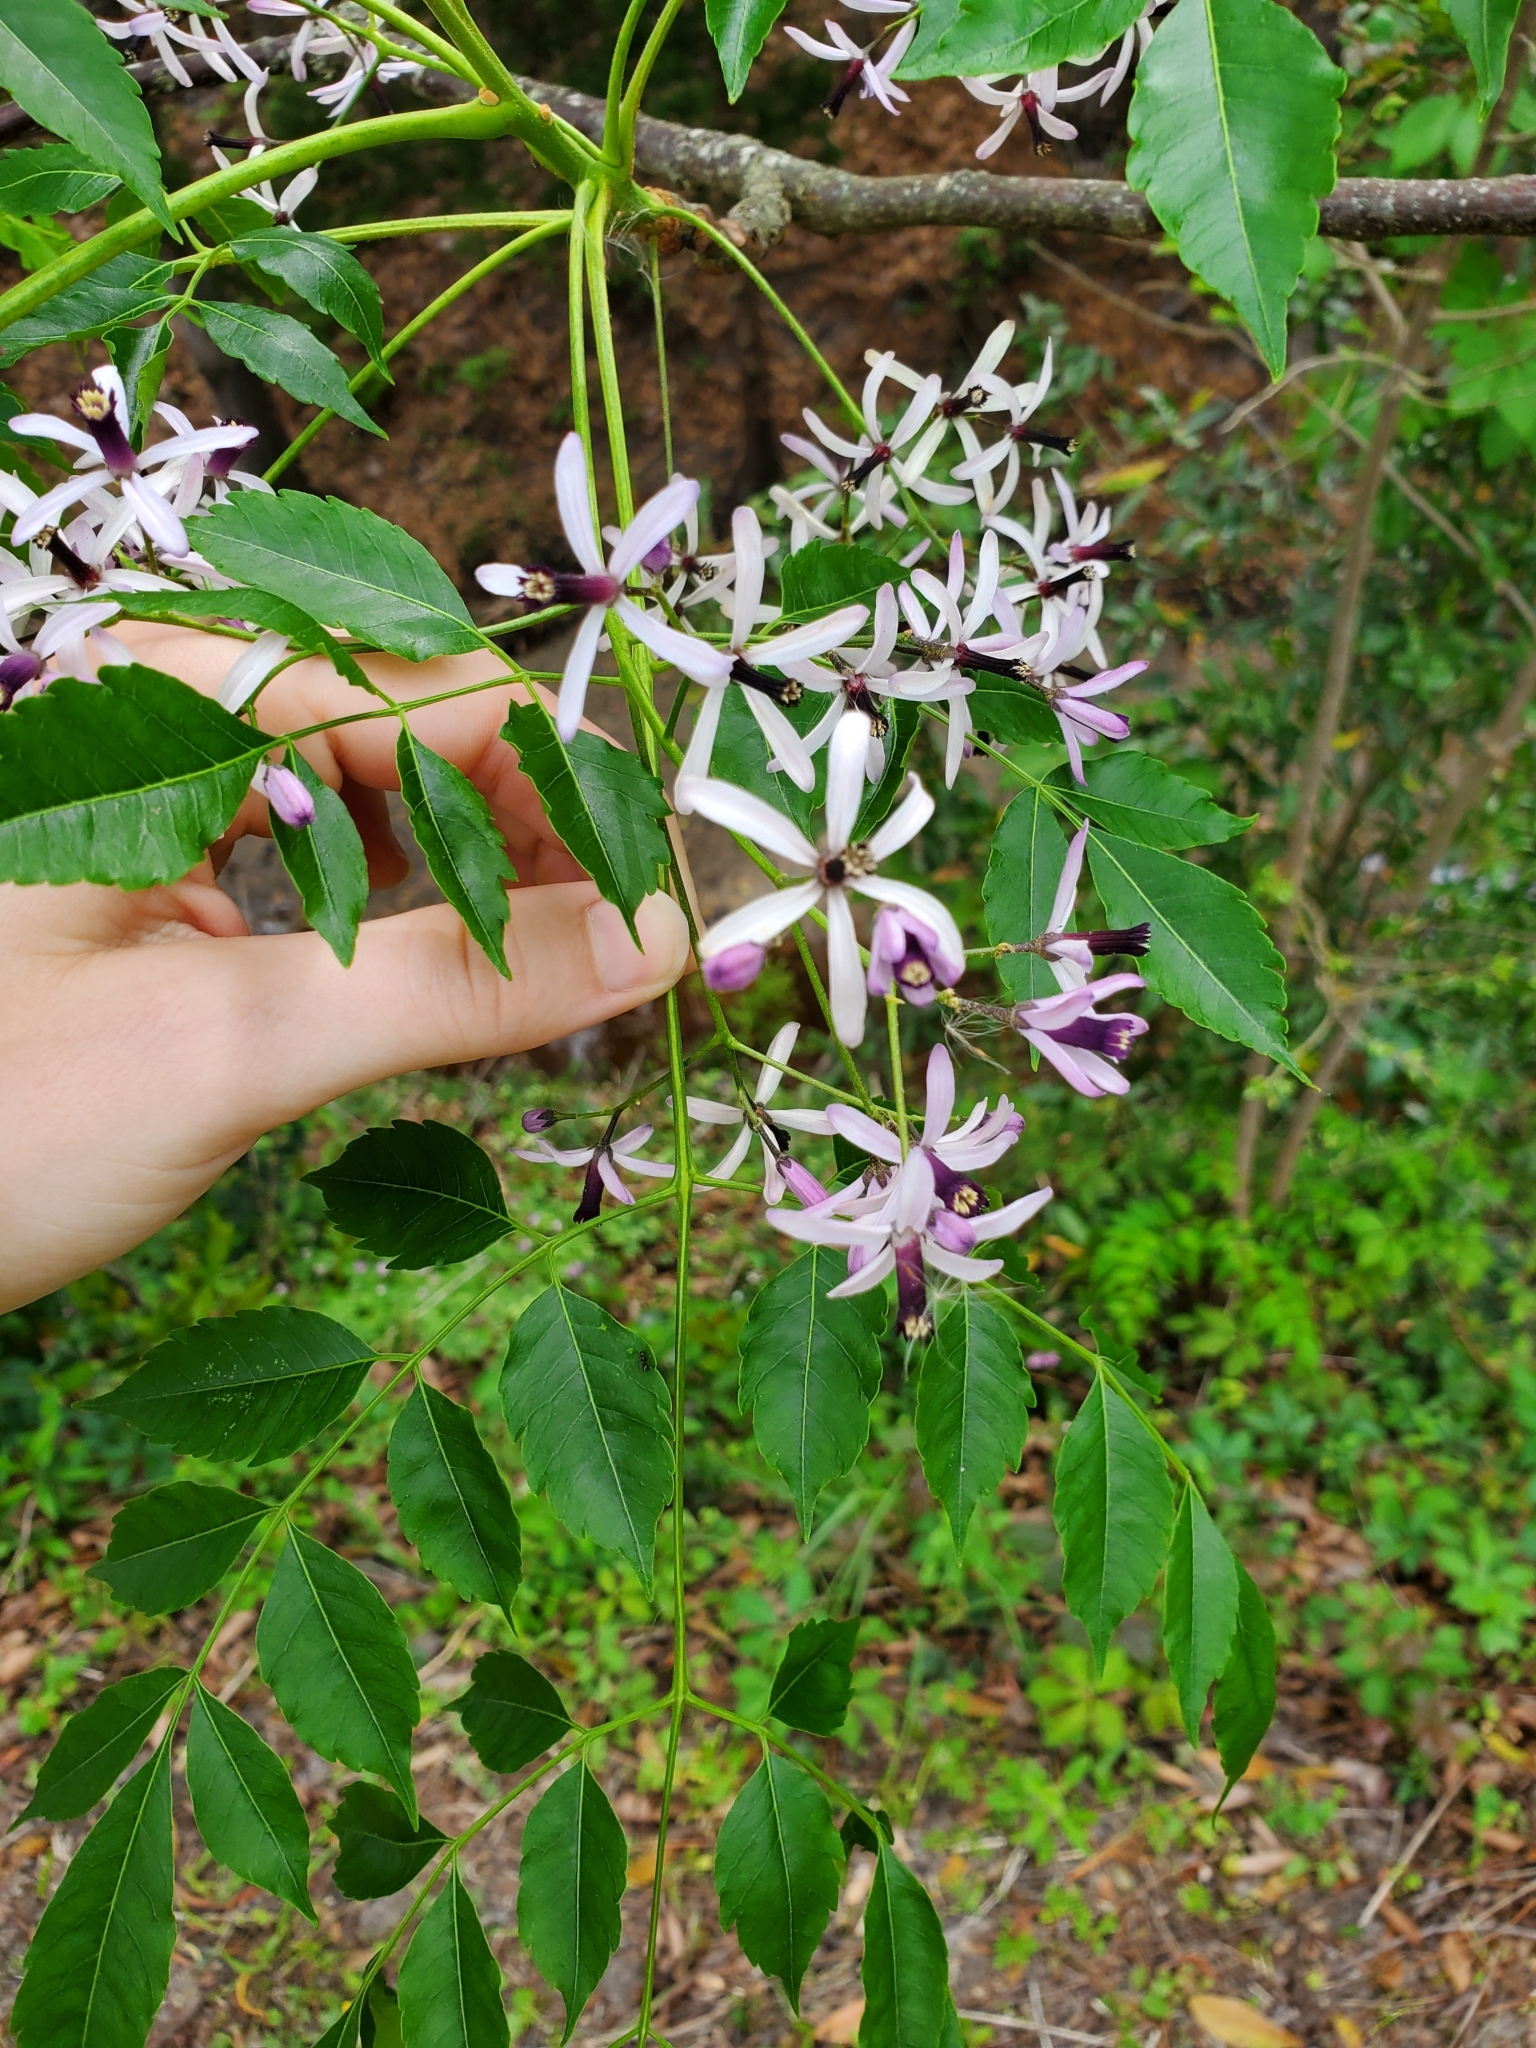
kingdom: Plantae
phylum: Tracheophyta
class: Magnoliopsida
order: Sapindales
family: Meliaceae
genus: Melia
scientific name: Melia azedarach
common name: Chinaberrytree
